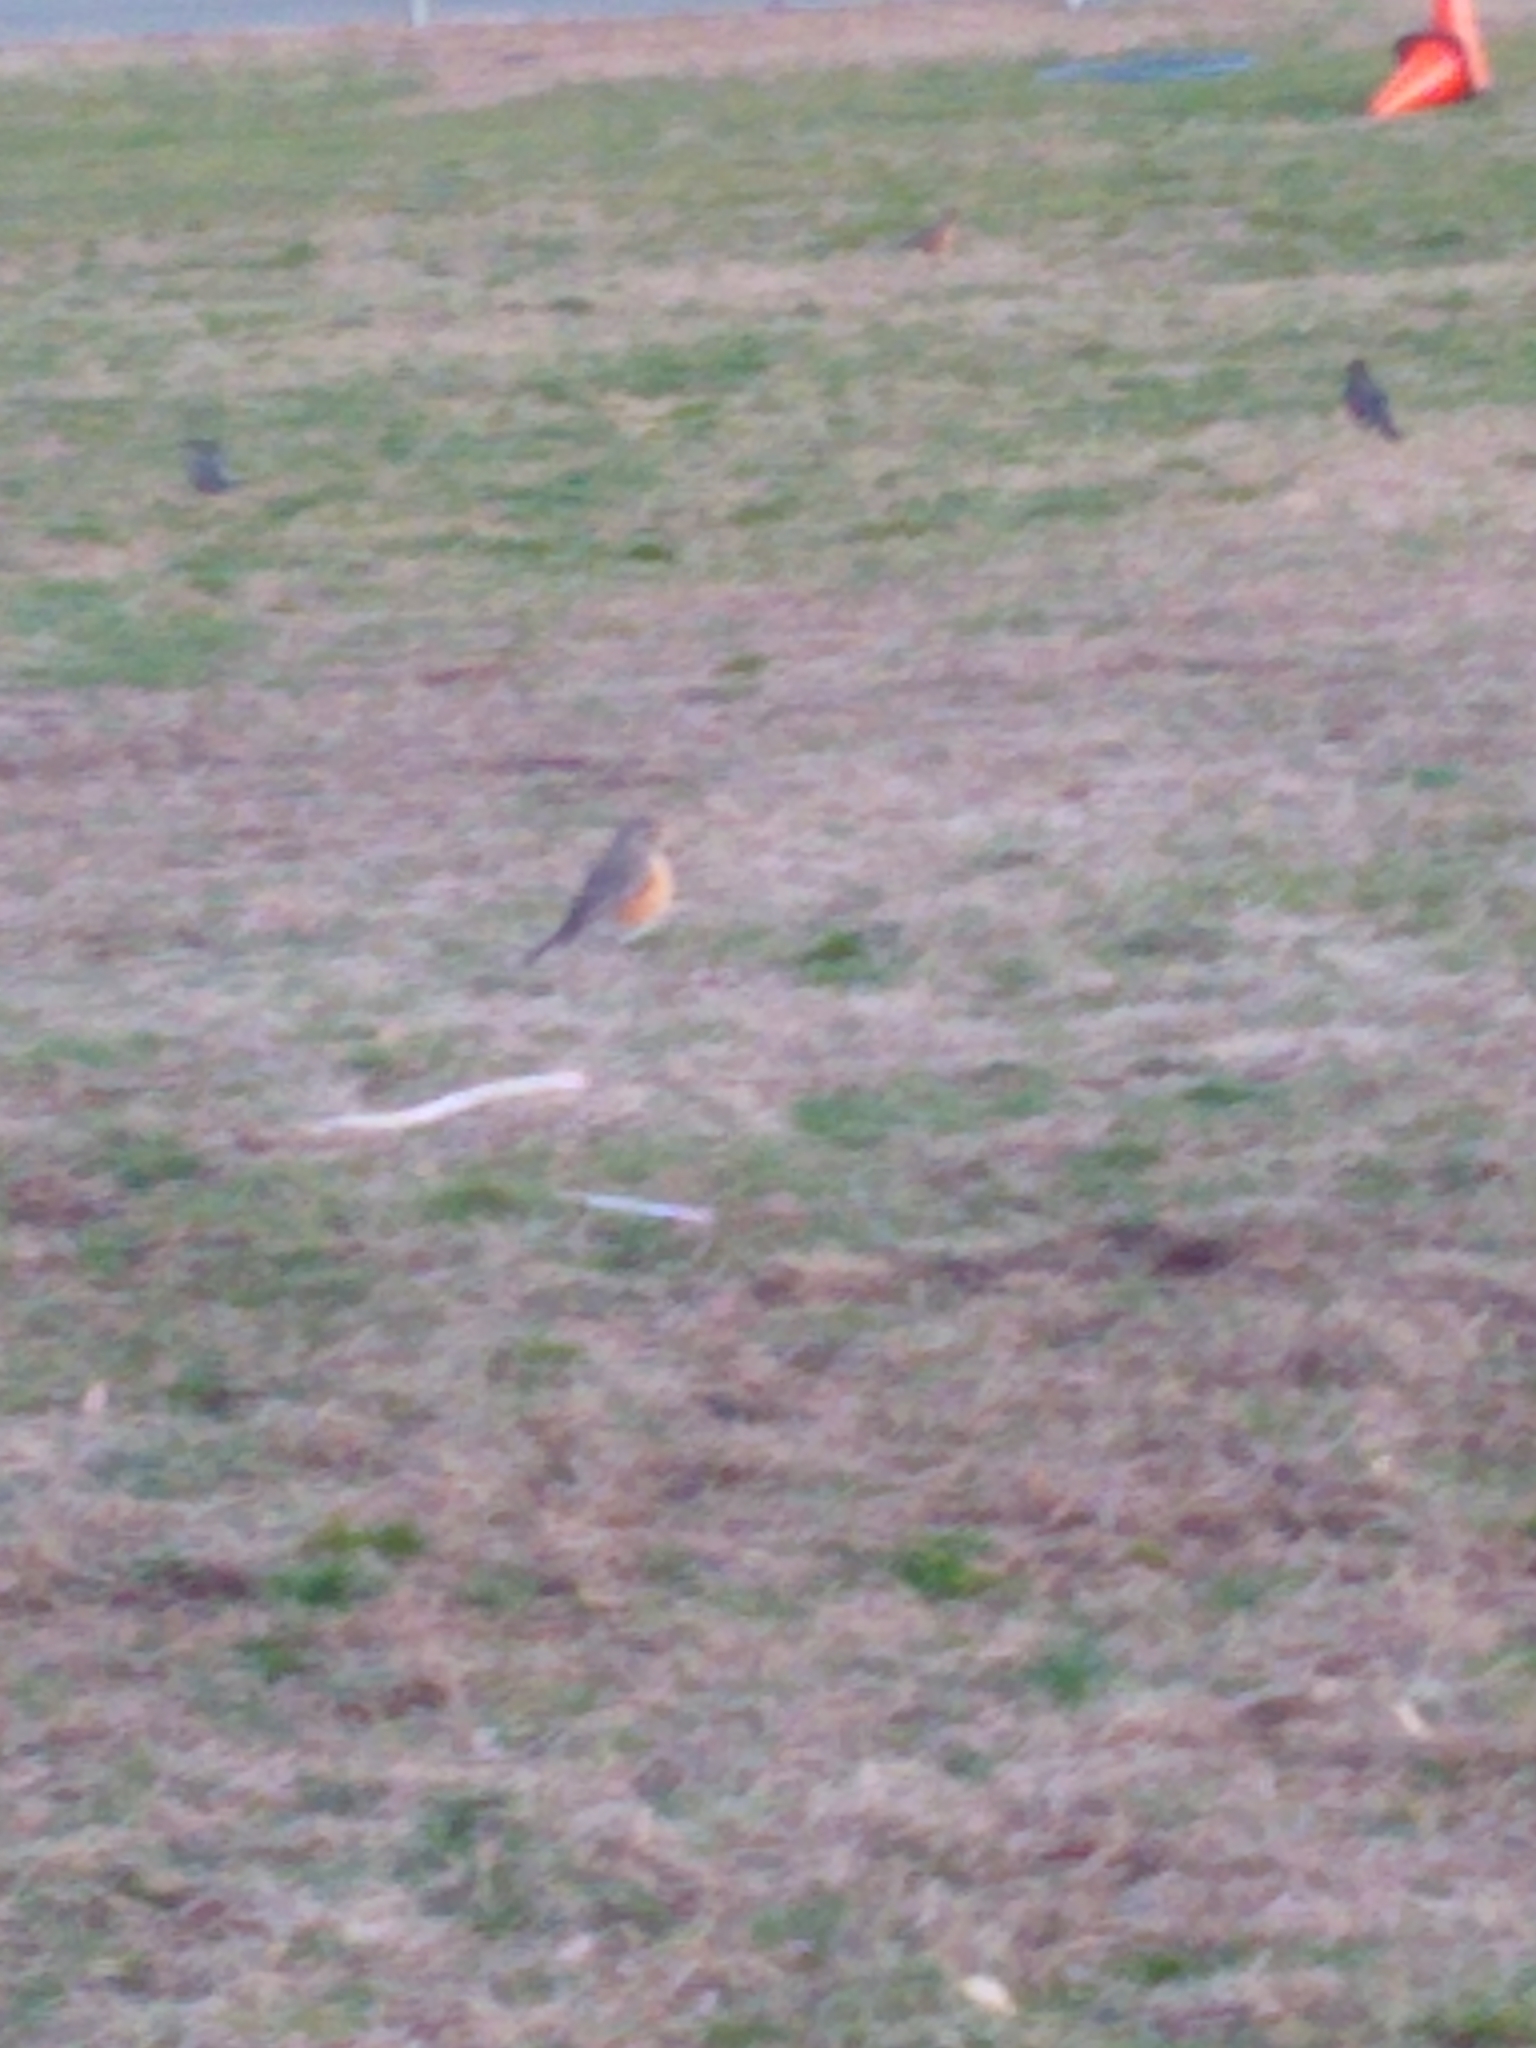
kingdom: Animalia
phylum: Chordata
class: Aves
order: Passeriformes
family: Turdidae
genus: Turdus
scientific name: Turdus migratorius
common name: American robin
